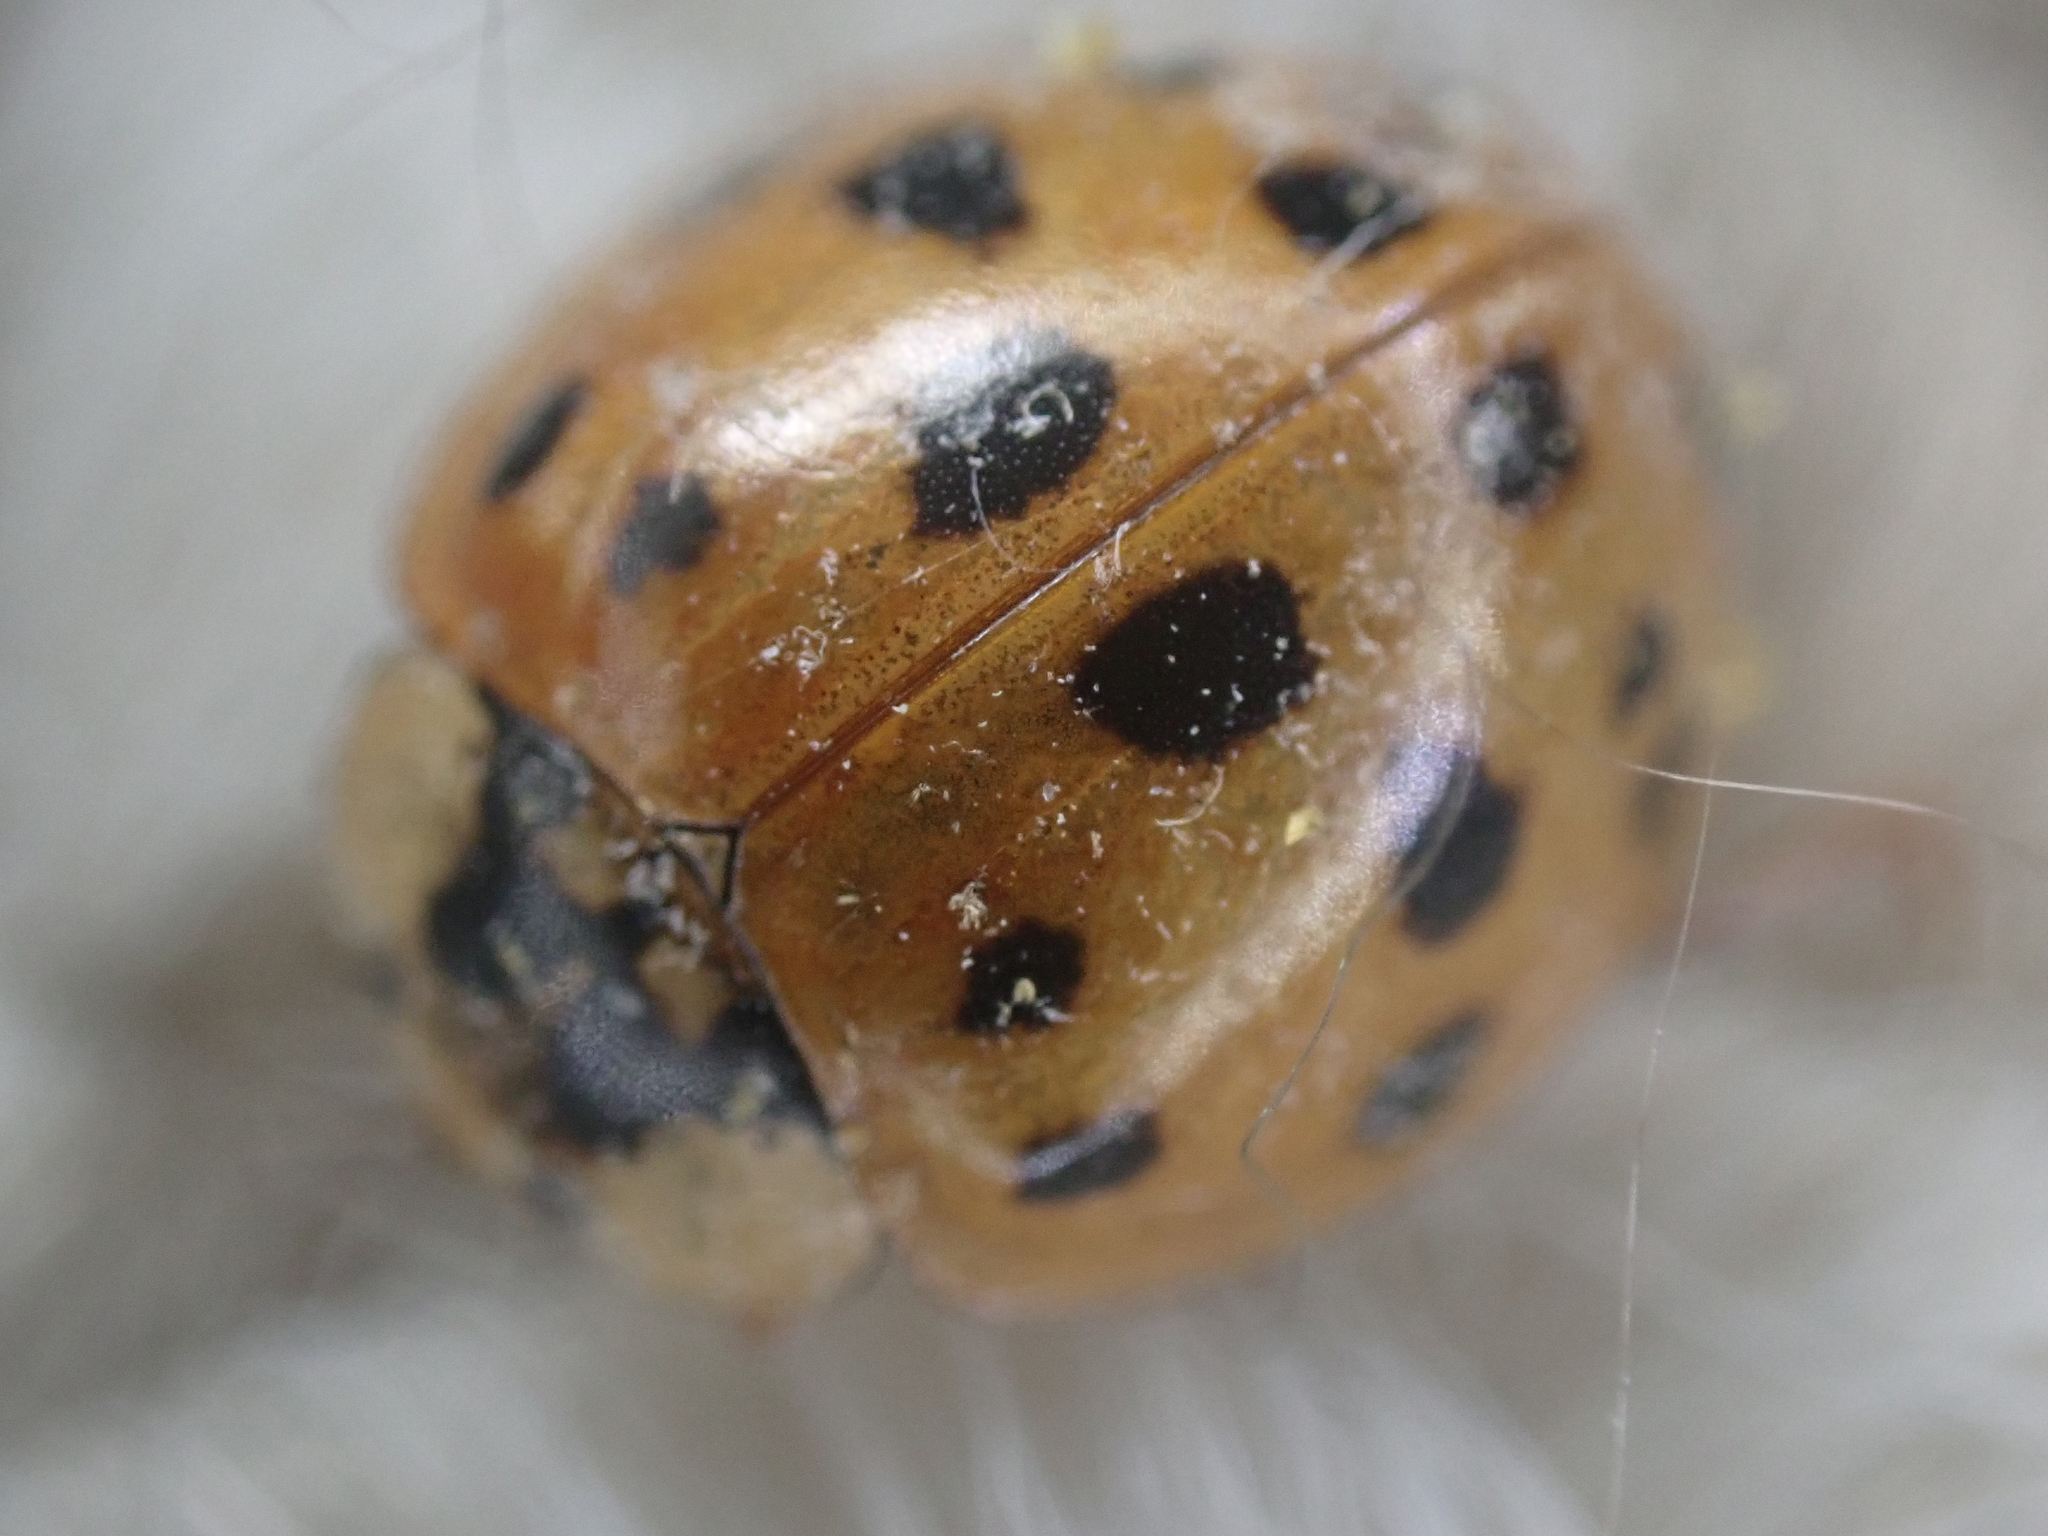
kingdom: Animalia
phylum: Arthropoda
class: Insecta
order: Coleoptera
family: Coccinellidae
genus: Harmonia
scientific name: Harmonia axyridis
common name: Harlequin ladybird
